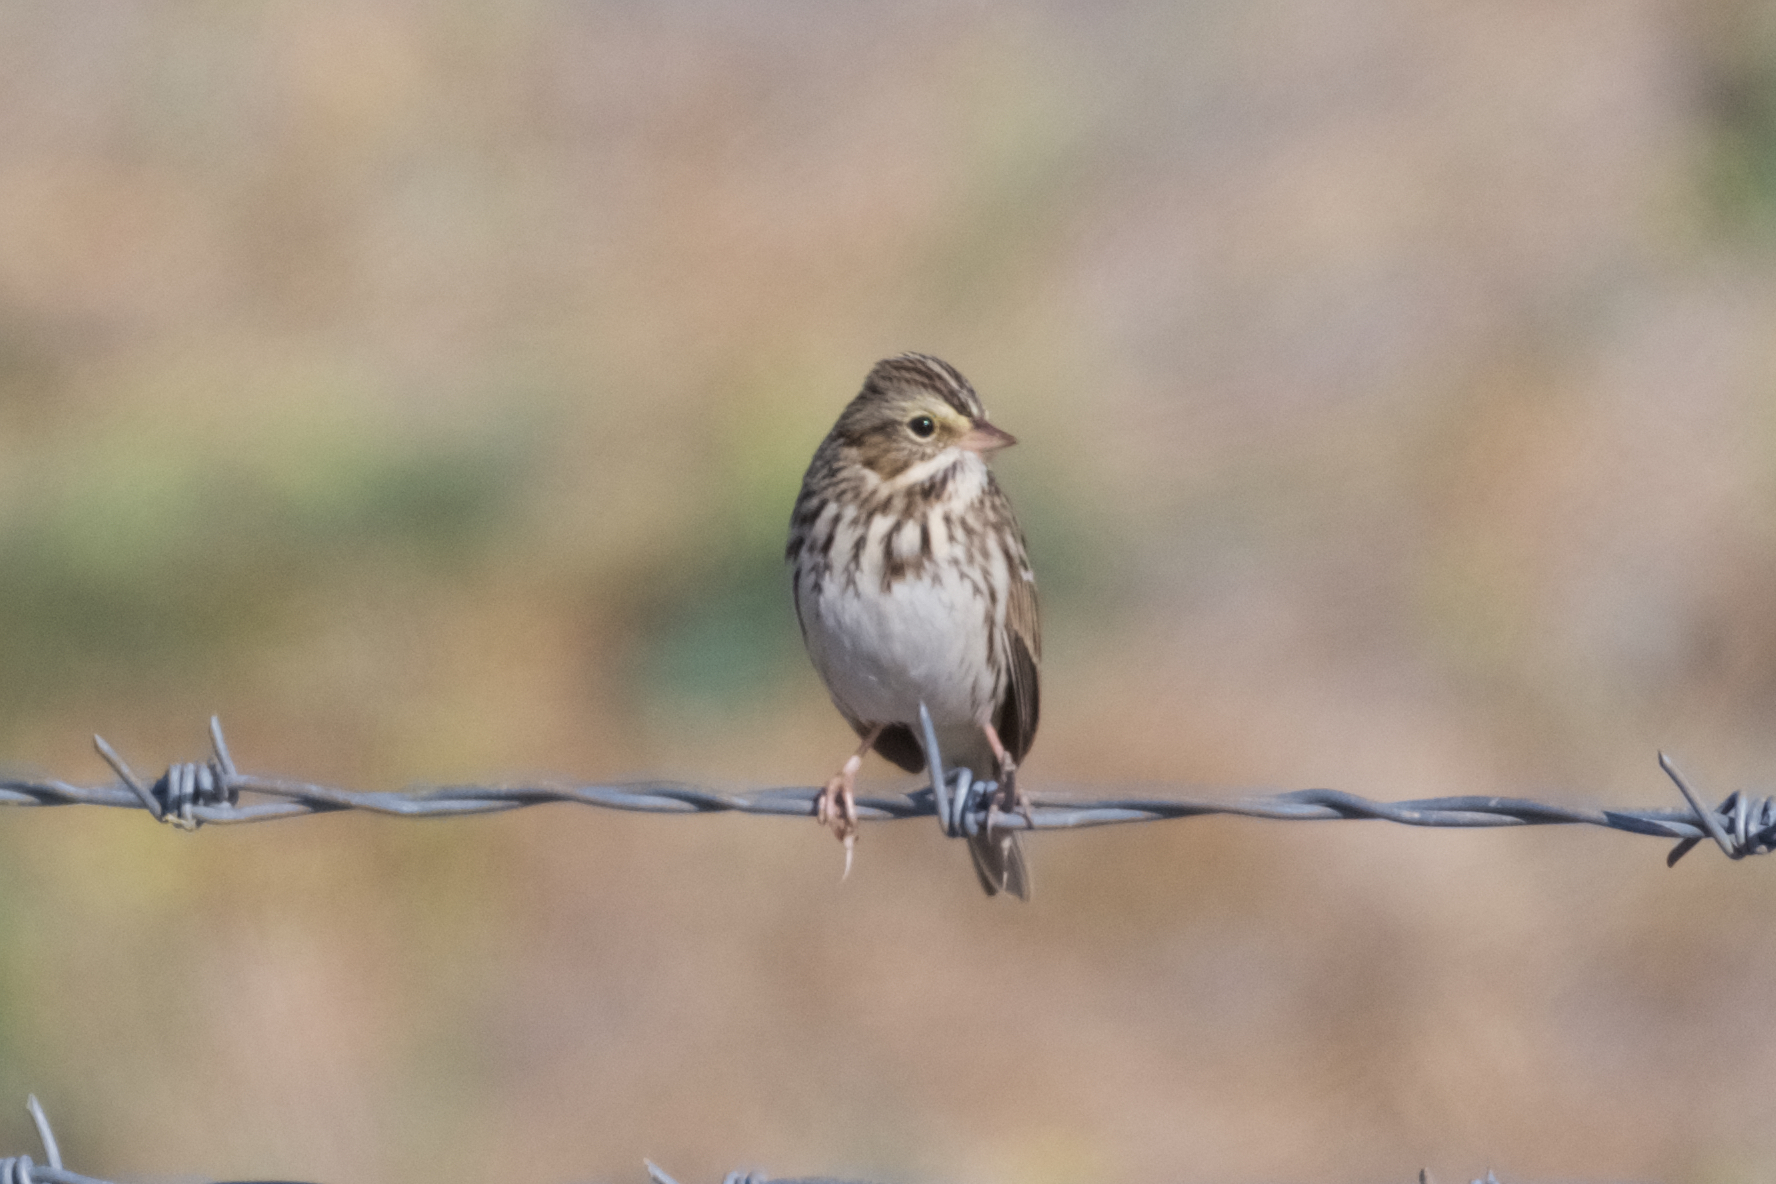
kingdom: Animalia
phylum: Chordata
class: Aves
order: Passeriformes
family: Passerellidae
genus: Passerculus
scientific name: Passerculus sandwichensis
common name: Savannah sparrow
